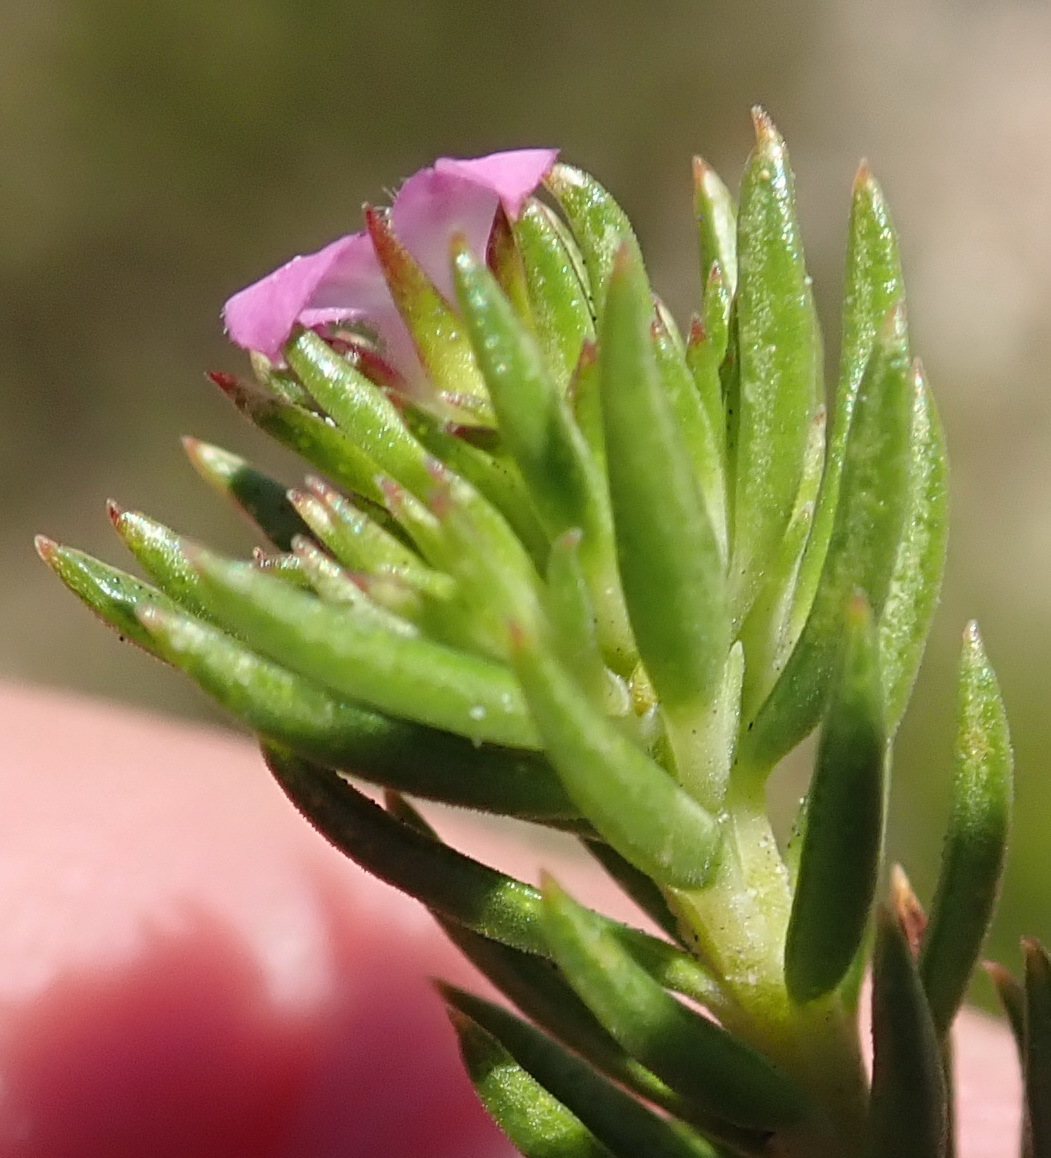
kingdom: Plantae
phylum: Tracheophyta
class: Magnoliopsida
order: Sapindales
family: Rutaceae
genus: Acmadenia
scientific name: Acmadenia alternifolia
